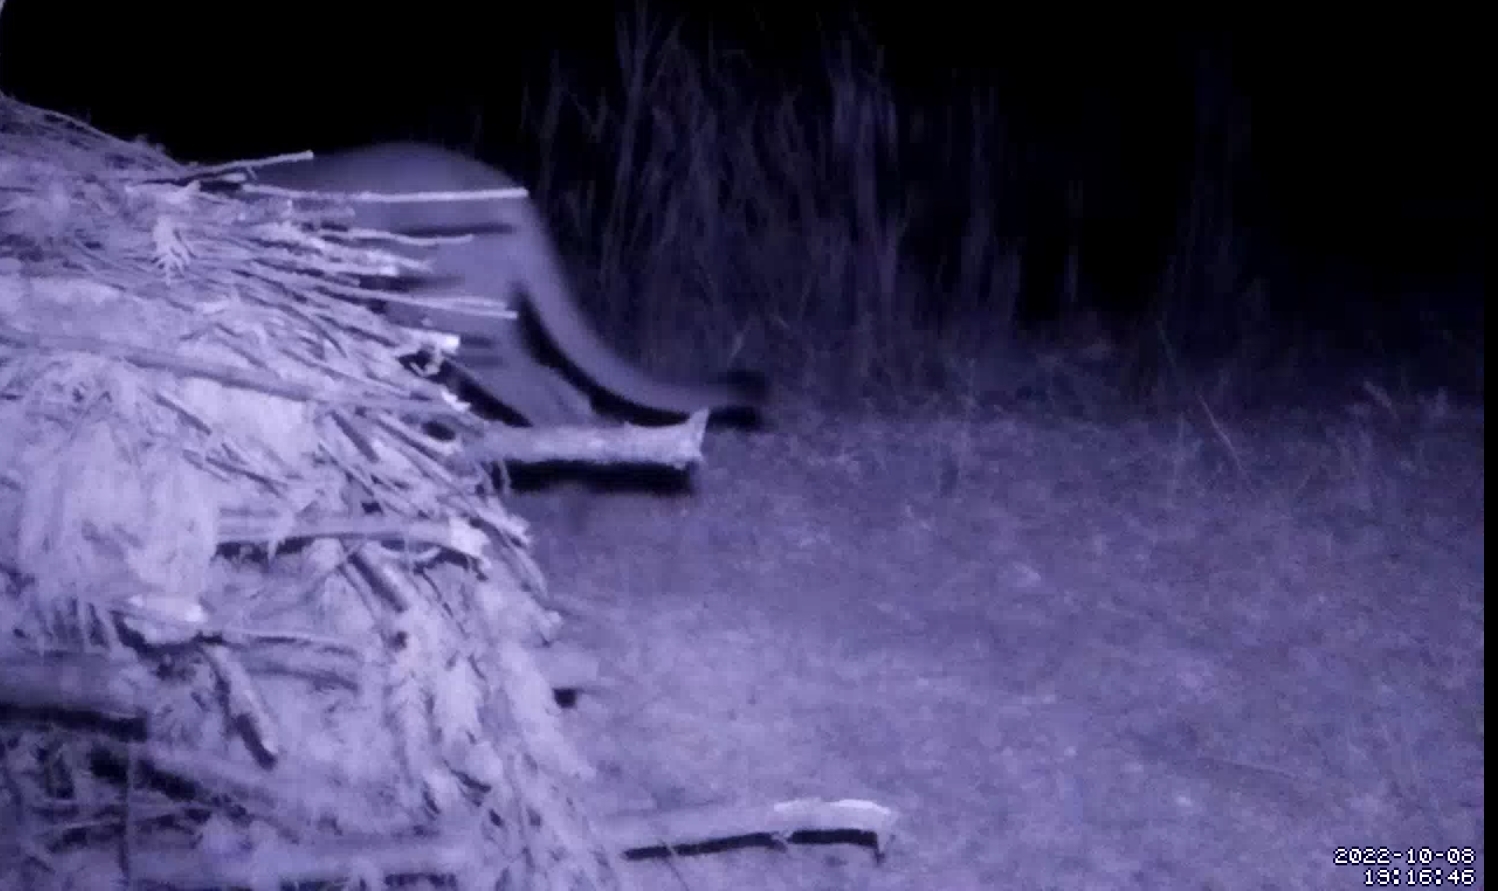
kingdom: Animalia
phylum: Chordata
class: Mammalia
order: Carnivora
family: Felidae
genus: Puma
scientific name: Puma concolor
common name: Puma
